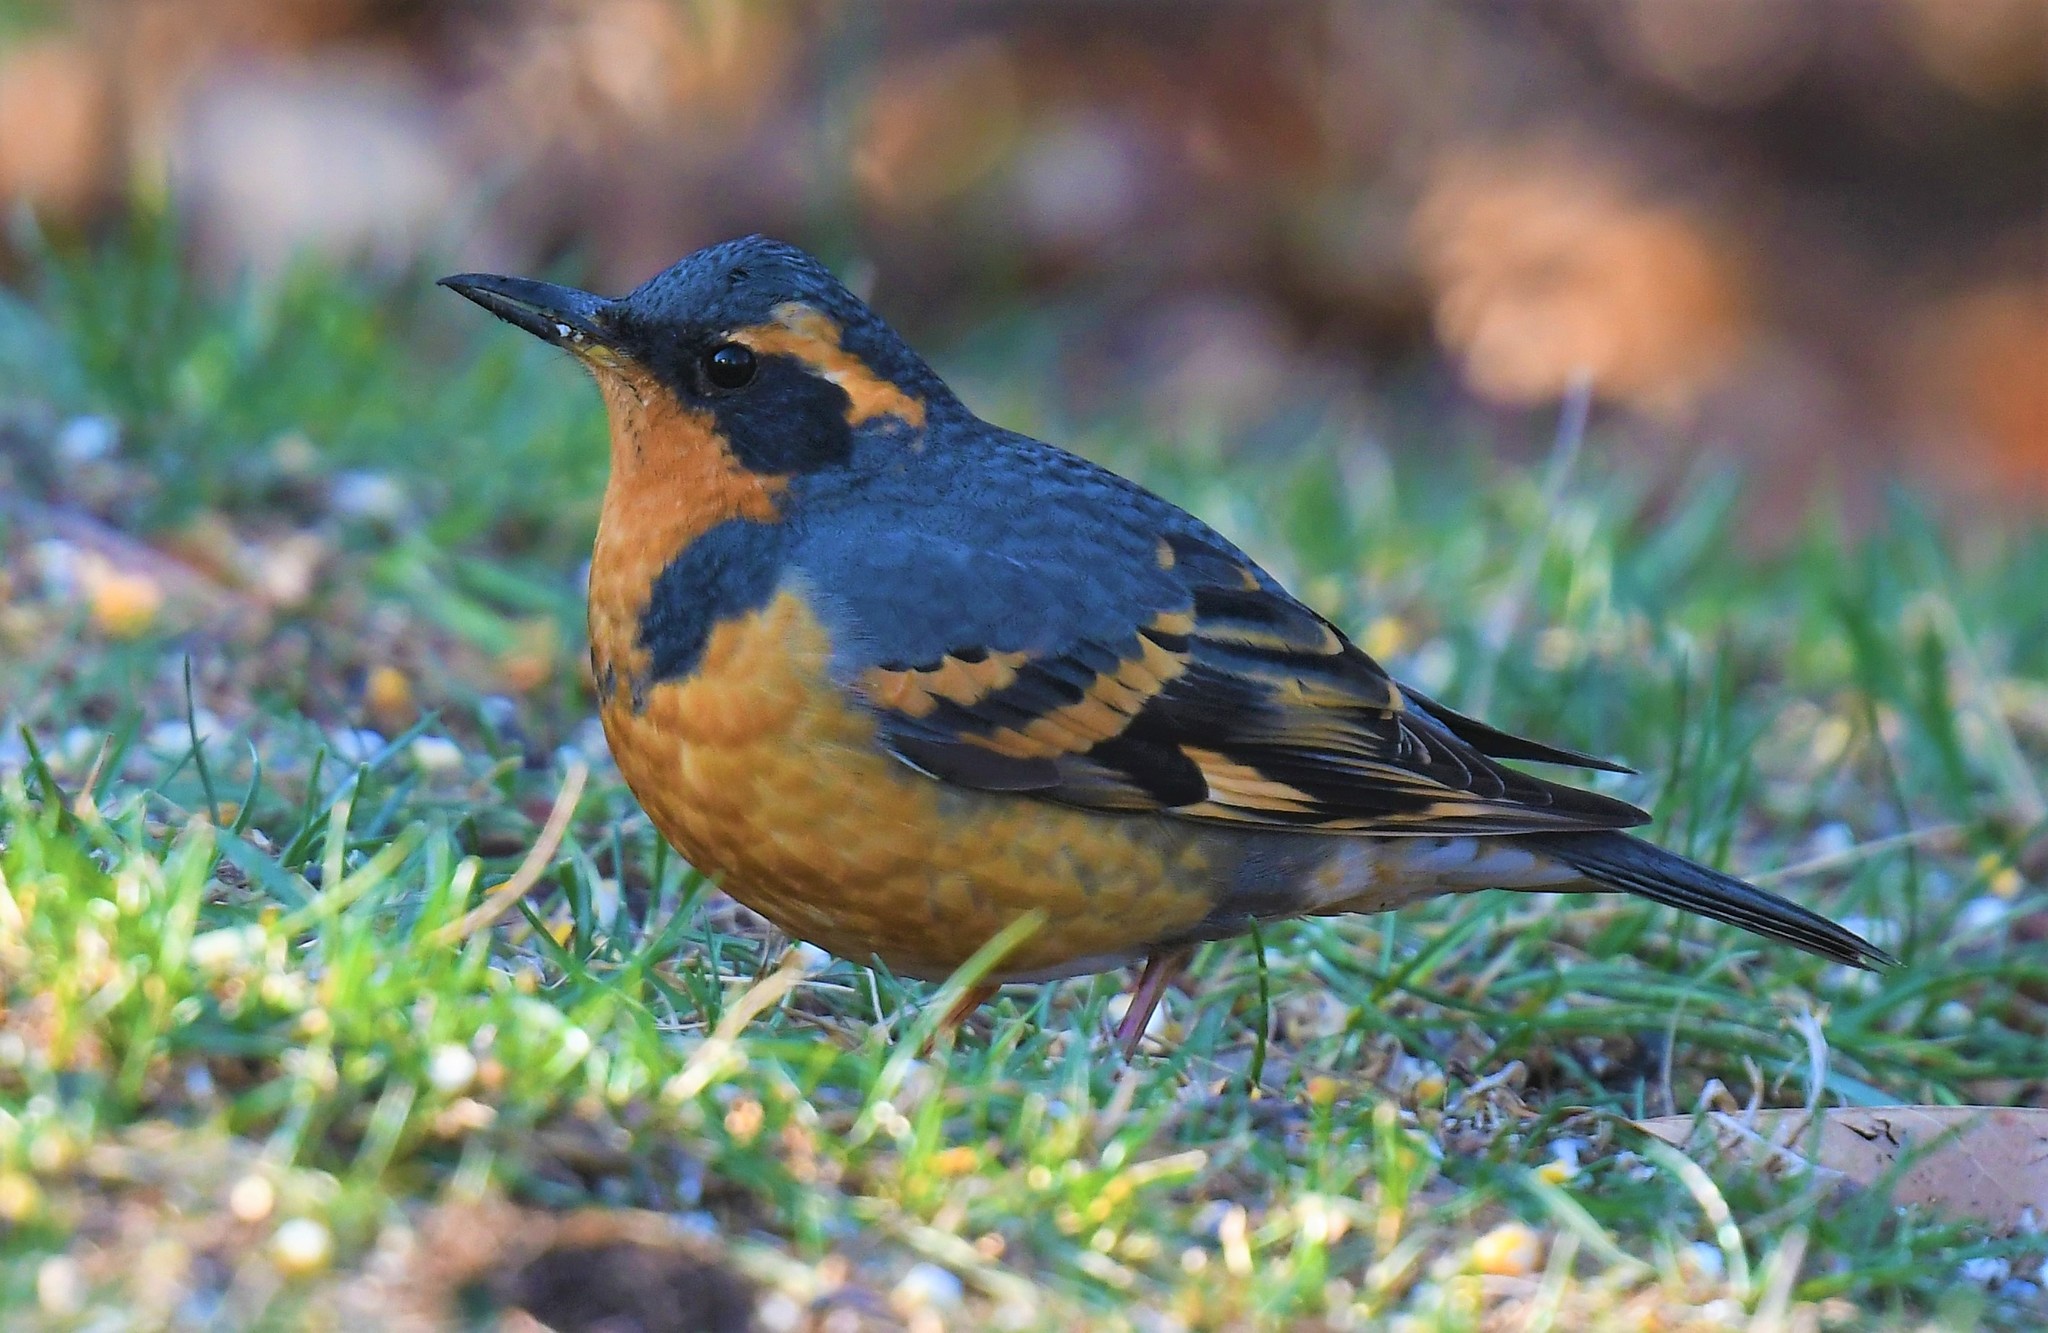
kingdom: Animalia
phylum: Chordata
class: Aves
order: Passeriformes
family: Turdidae
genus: Ixoreus
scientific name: Ixoreus naevius
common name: Varied thrush
